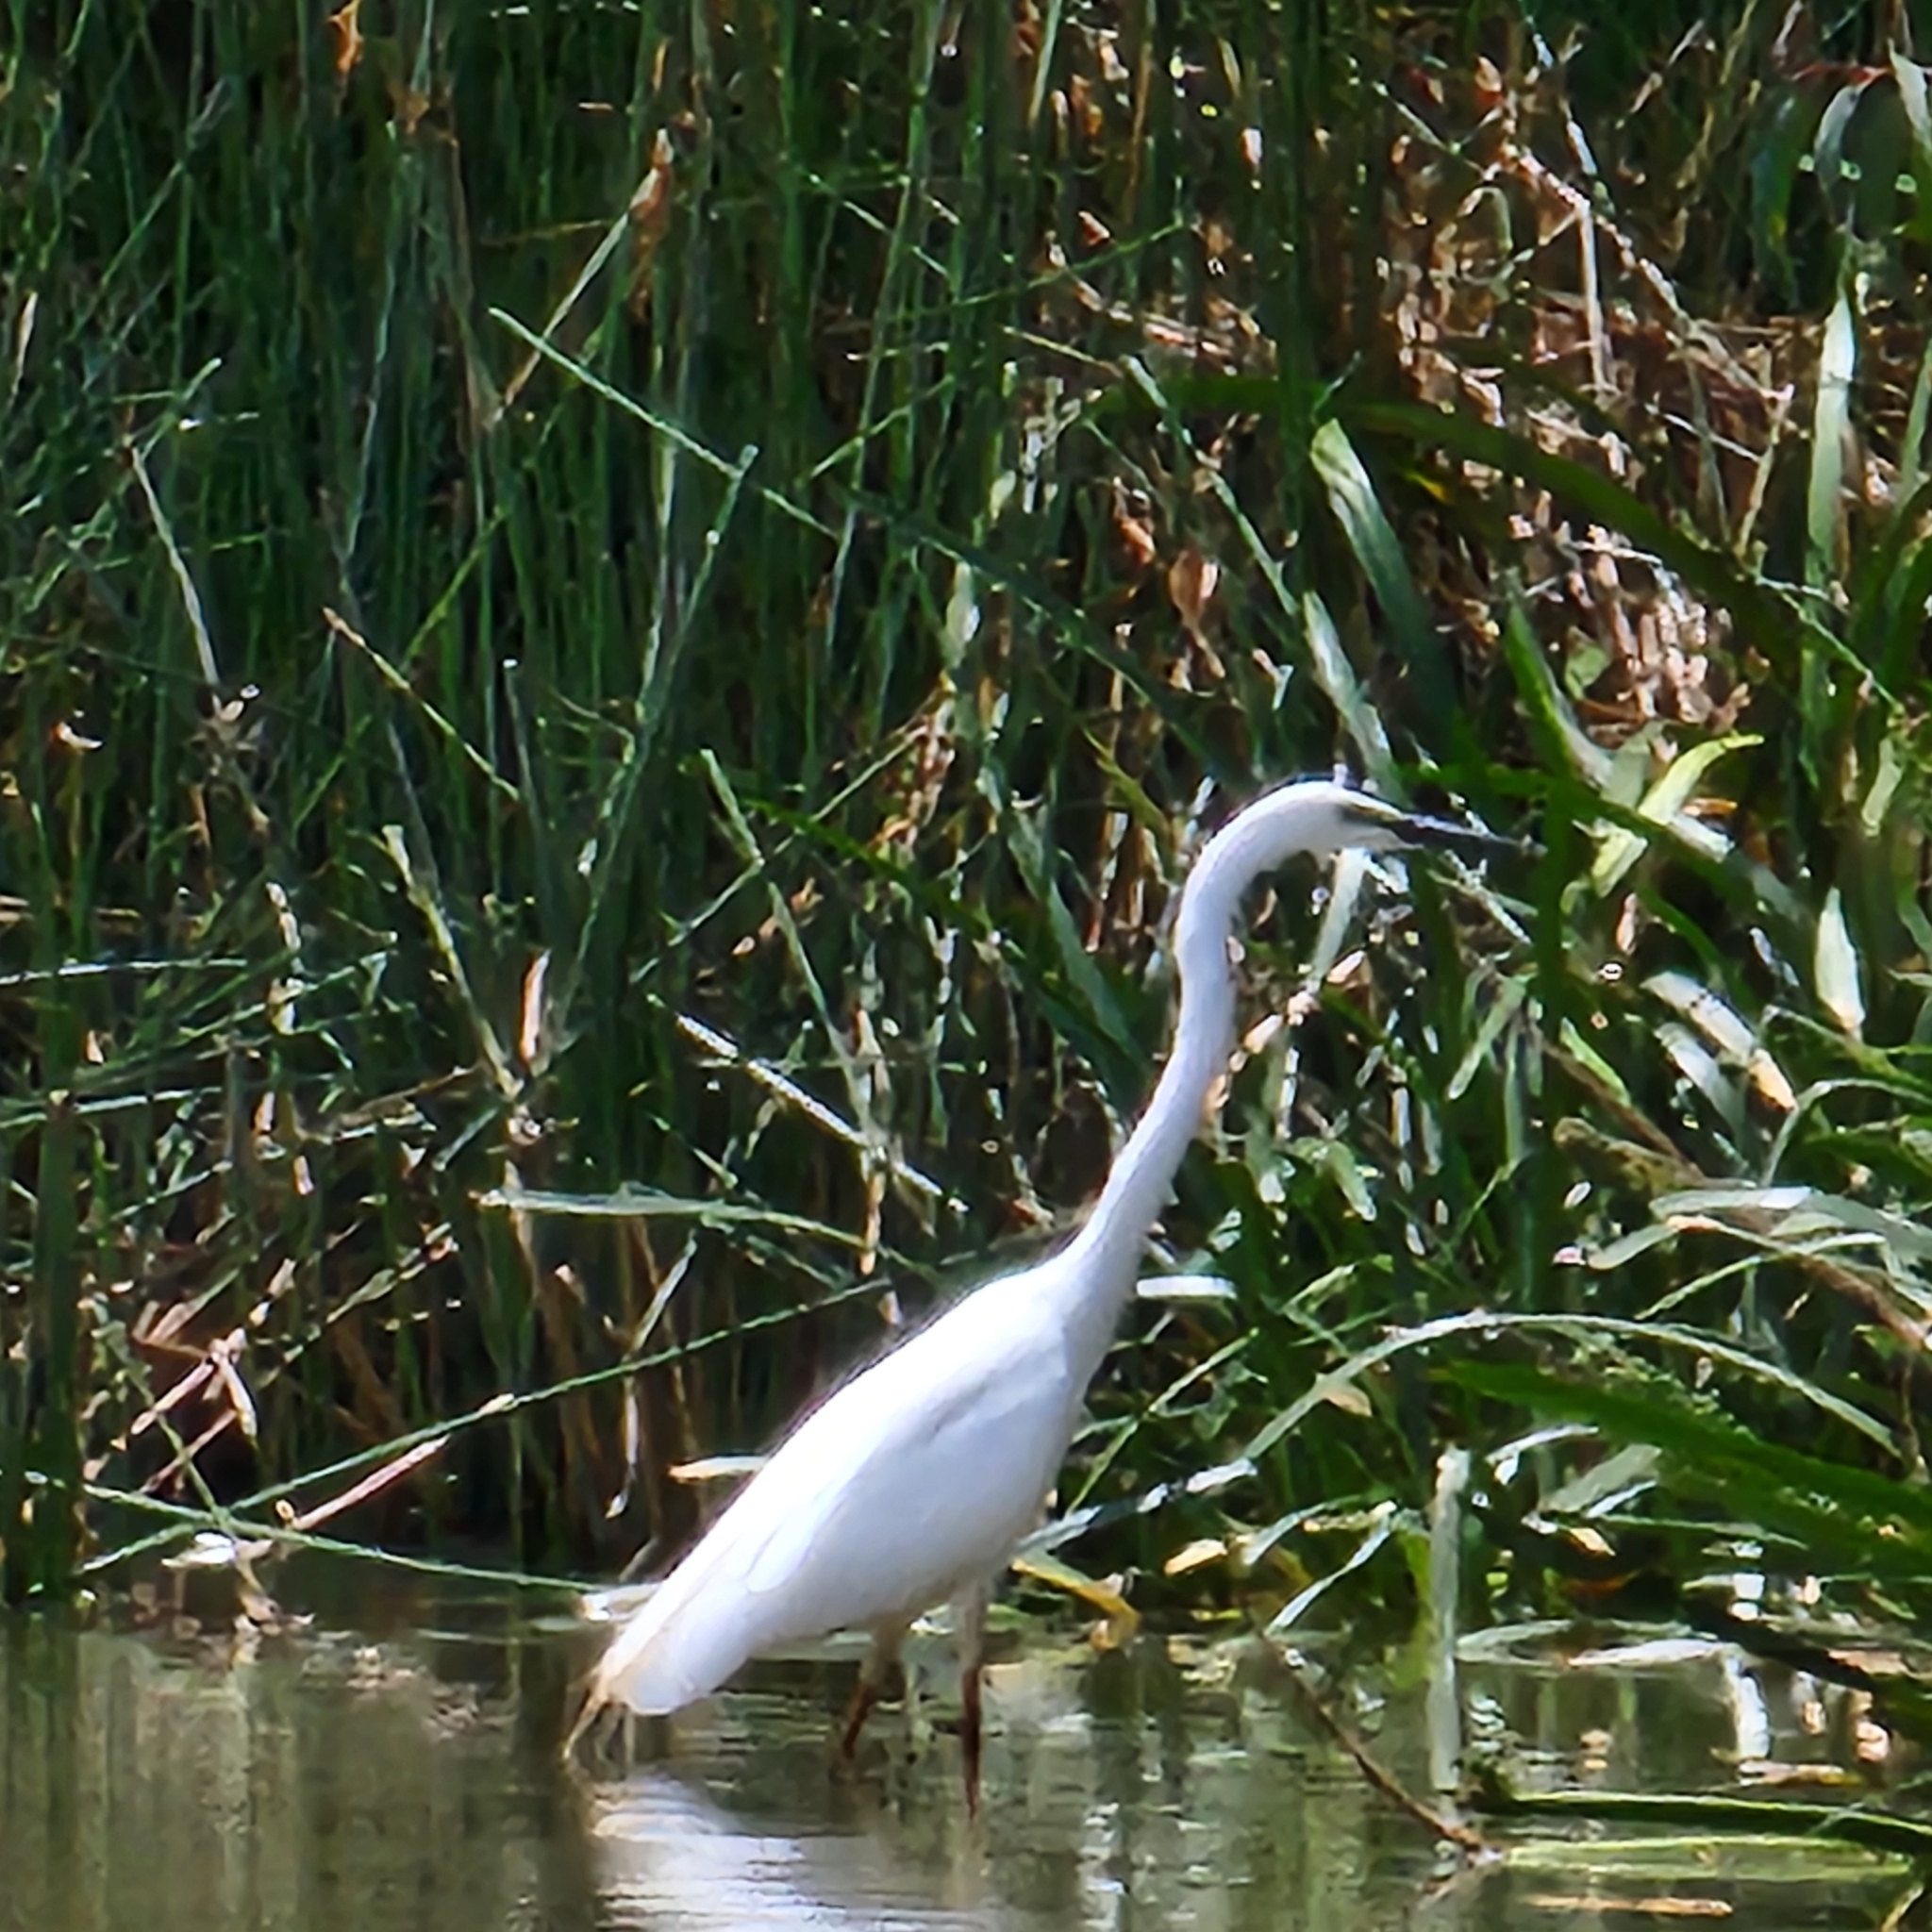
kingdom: Animalia
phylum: Chordata
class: Aves
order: Pelecaniformes
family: Ardeidae
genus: Ardea
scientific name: Ardea alba
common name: Great egret
